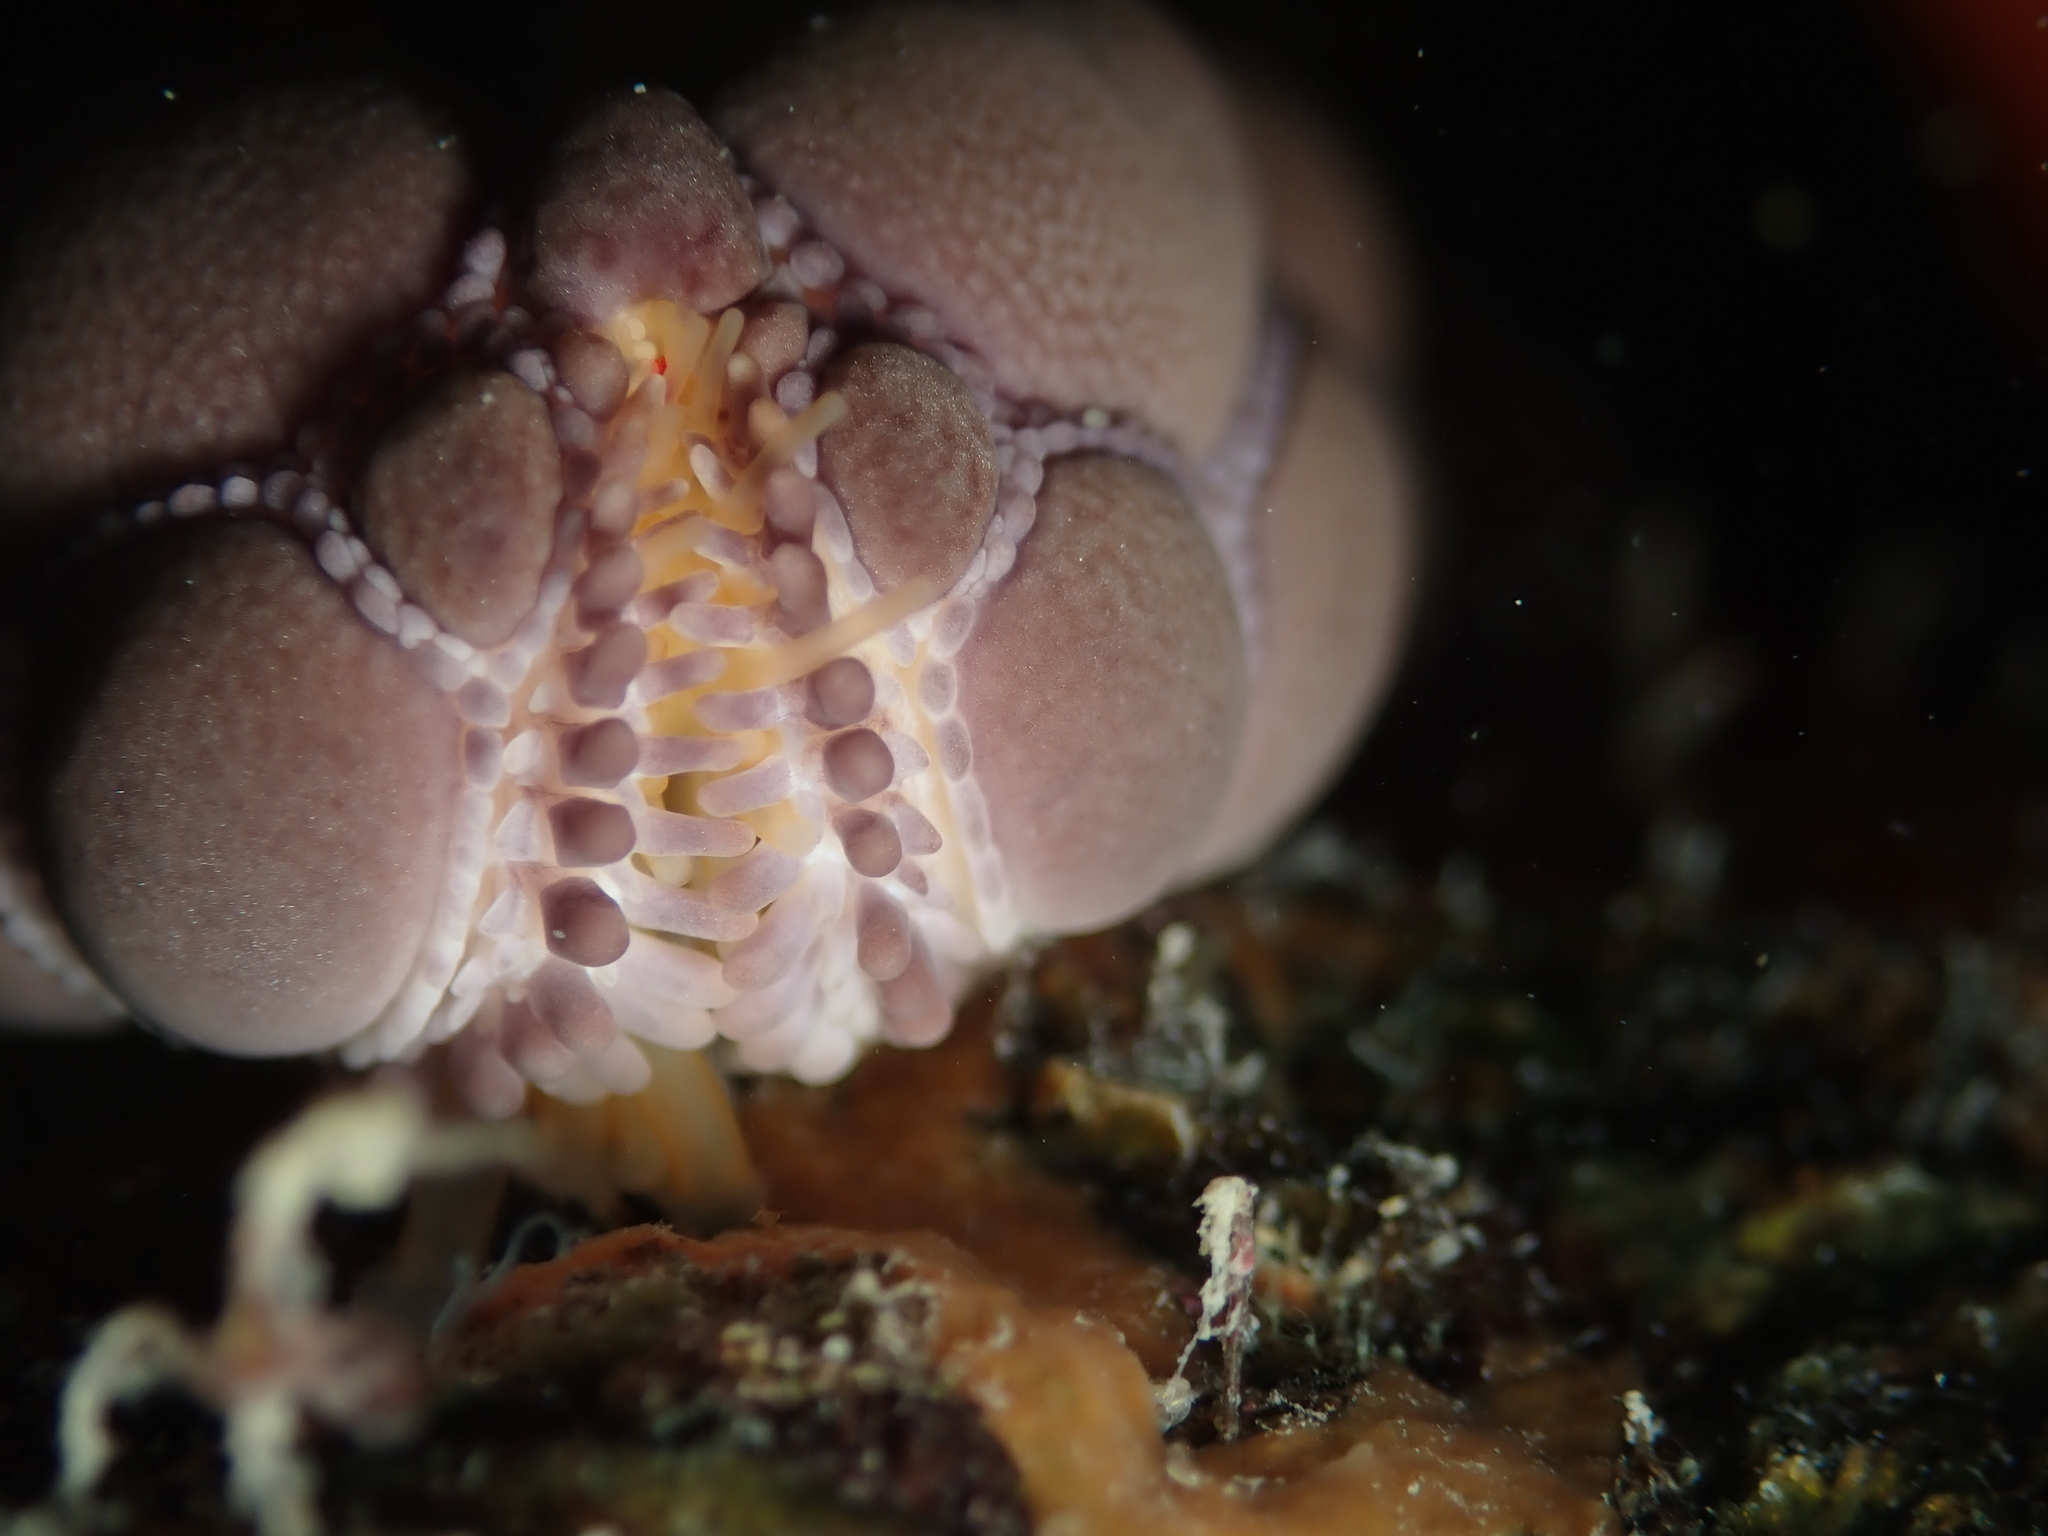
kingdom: Animalia
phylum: Echinodermata
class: Asteroidea
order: Valvatida
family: Goniasteridae
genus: Pentagonaster
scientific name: Pentagonaster pulchellus
